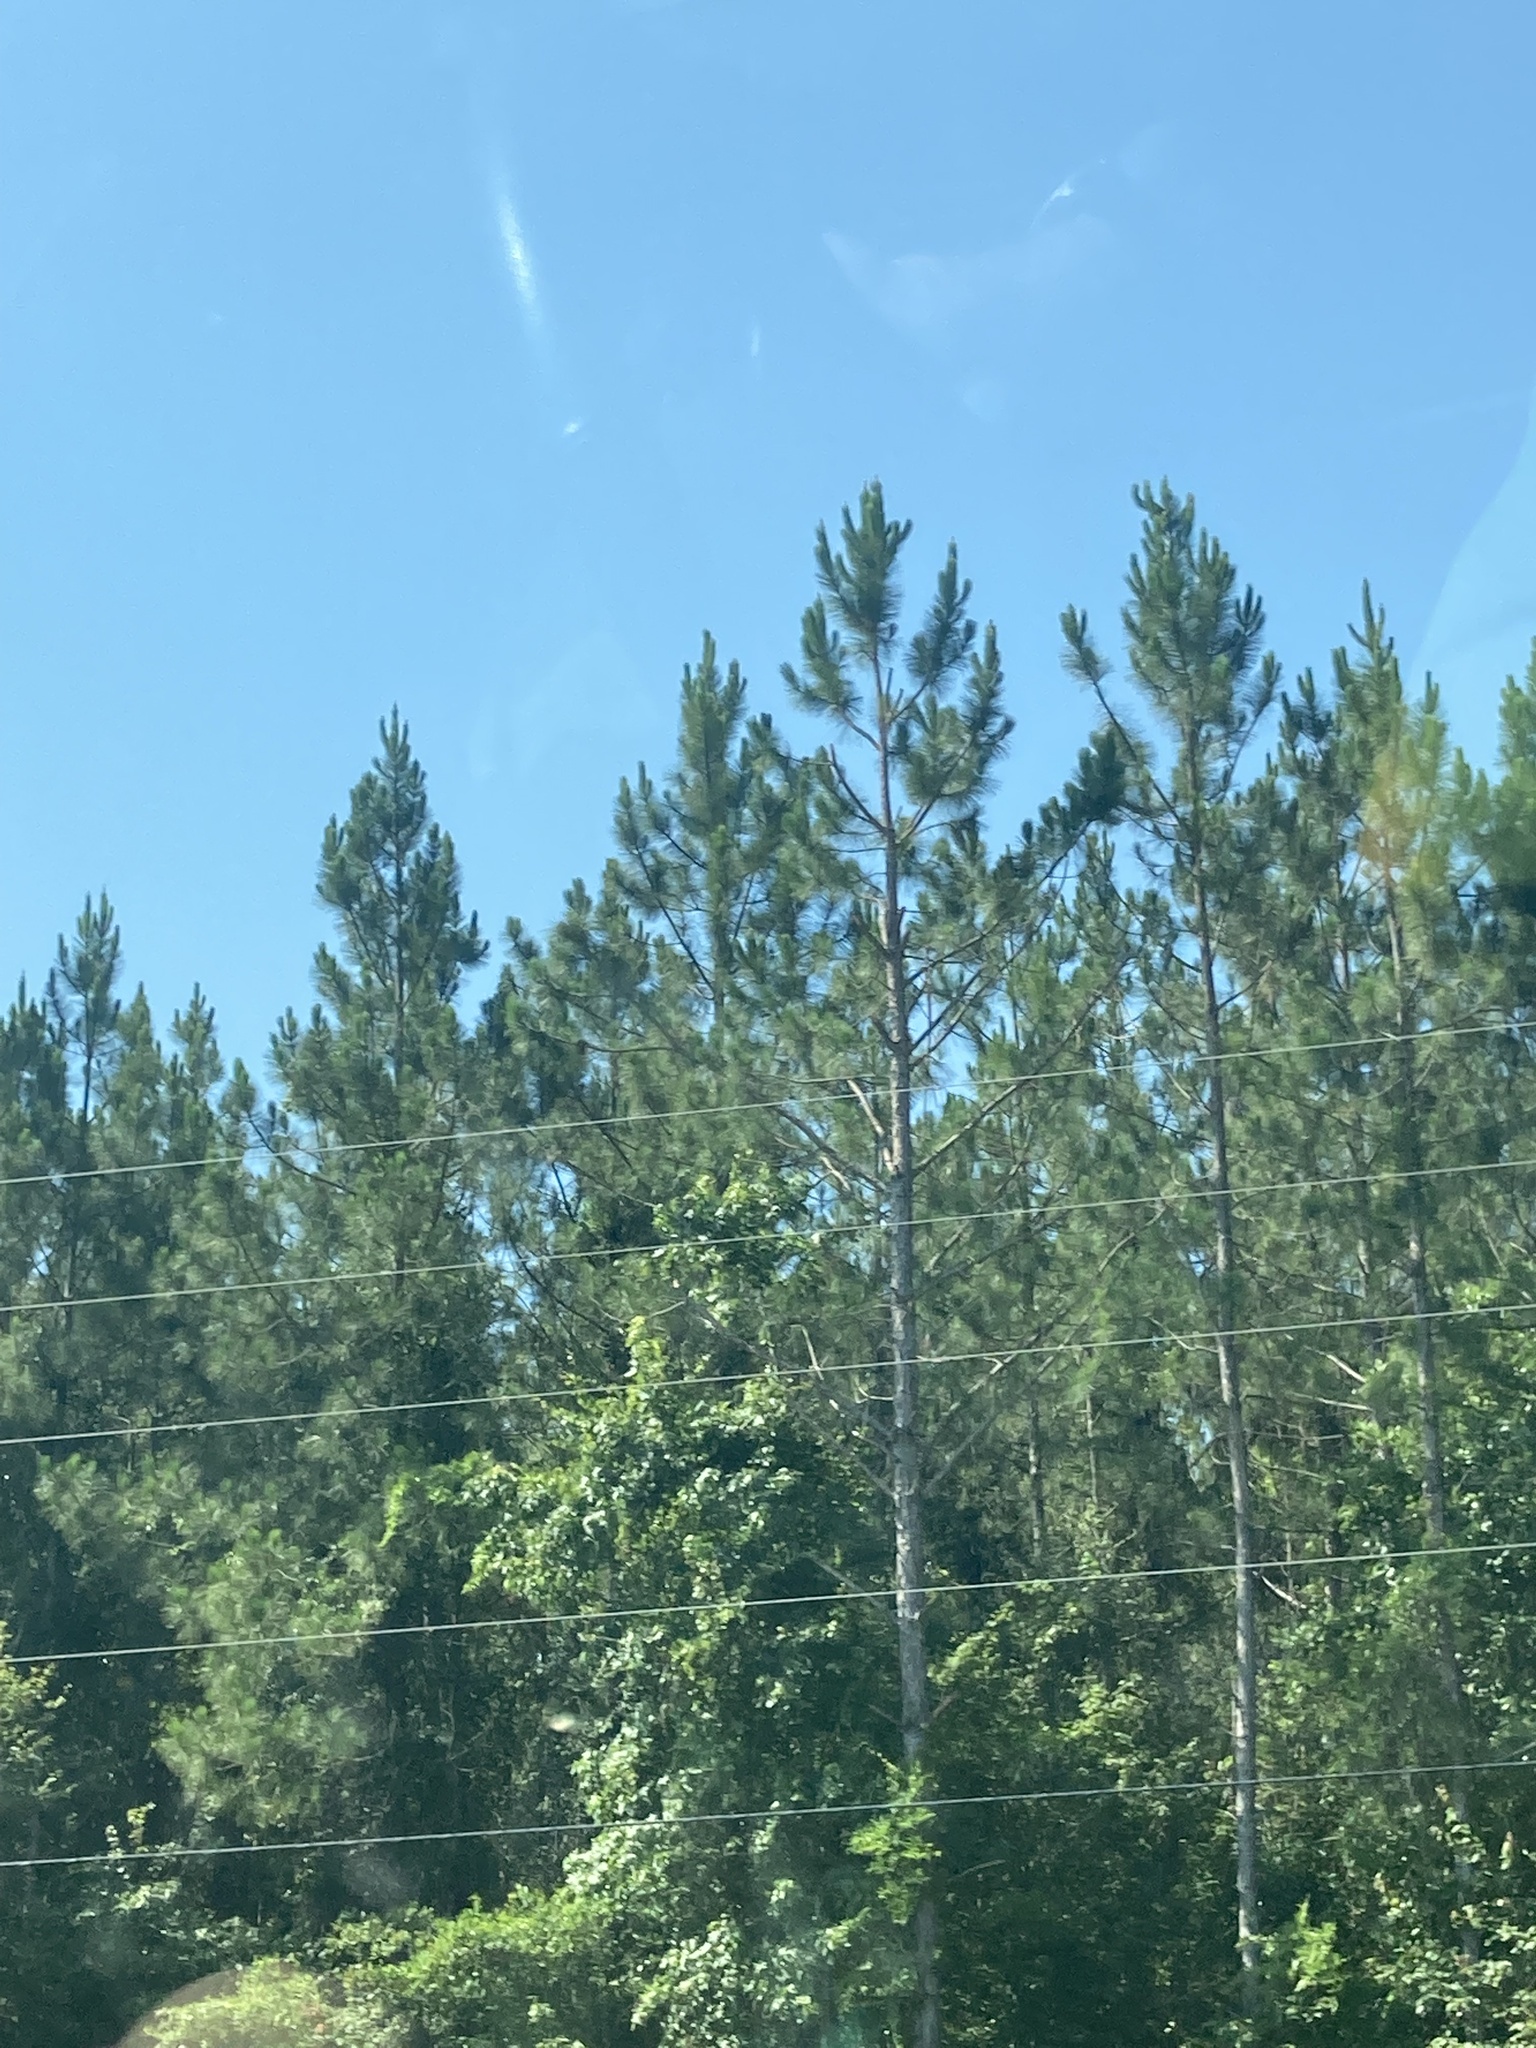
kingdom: Plantae
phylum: Tracheophyta
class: Pinopsida
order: Pinales
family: Pinaceae
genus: Pinus
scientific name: Pinus taeda
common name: Loblolly pine
